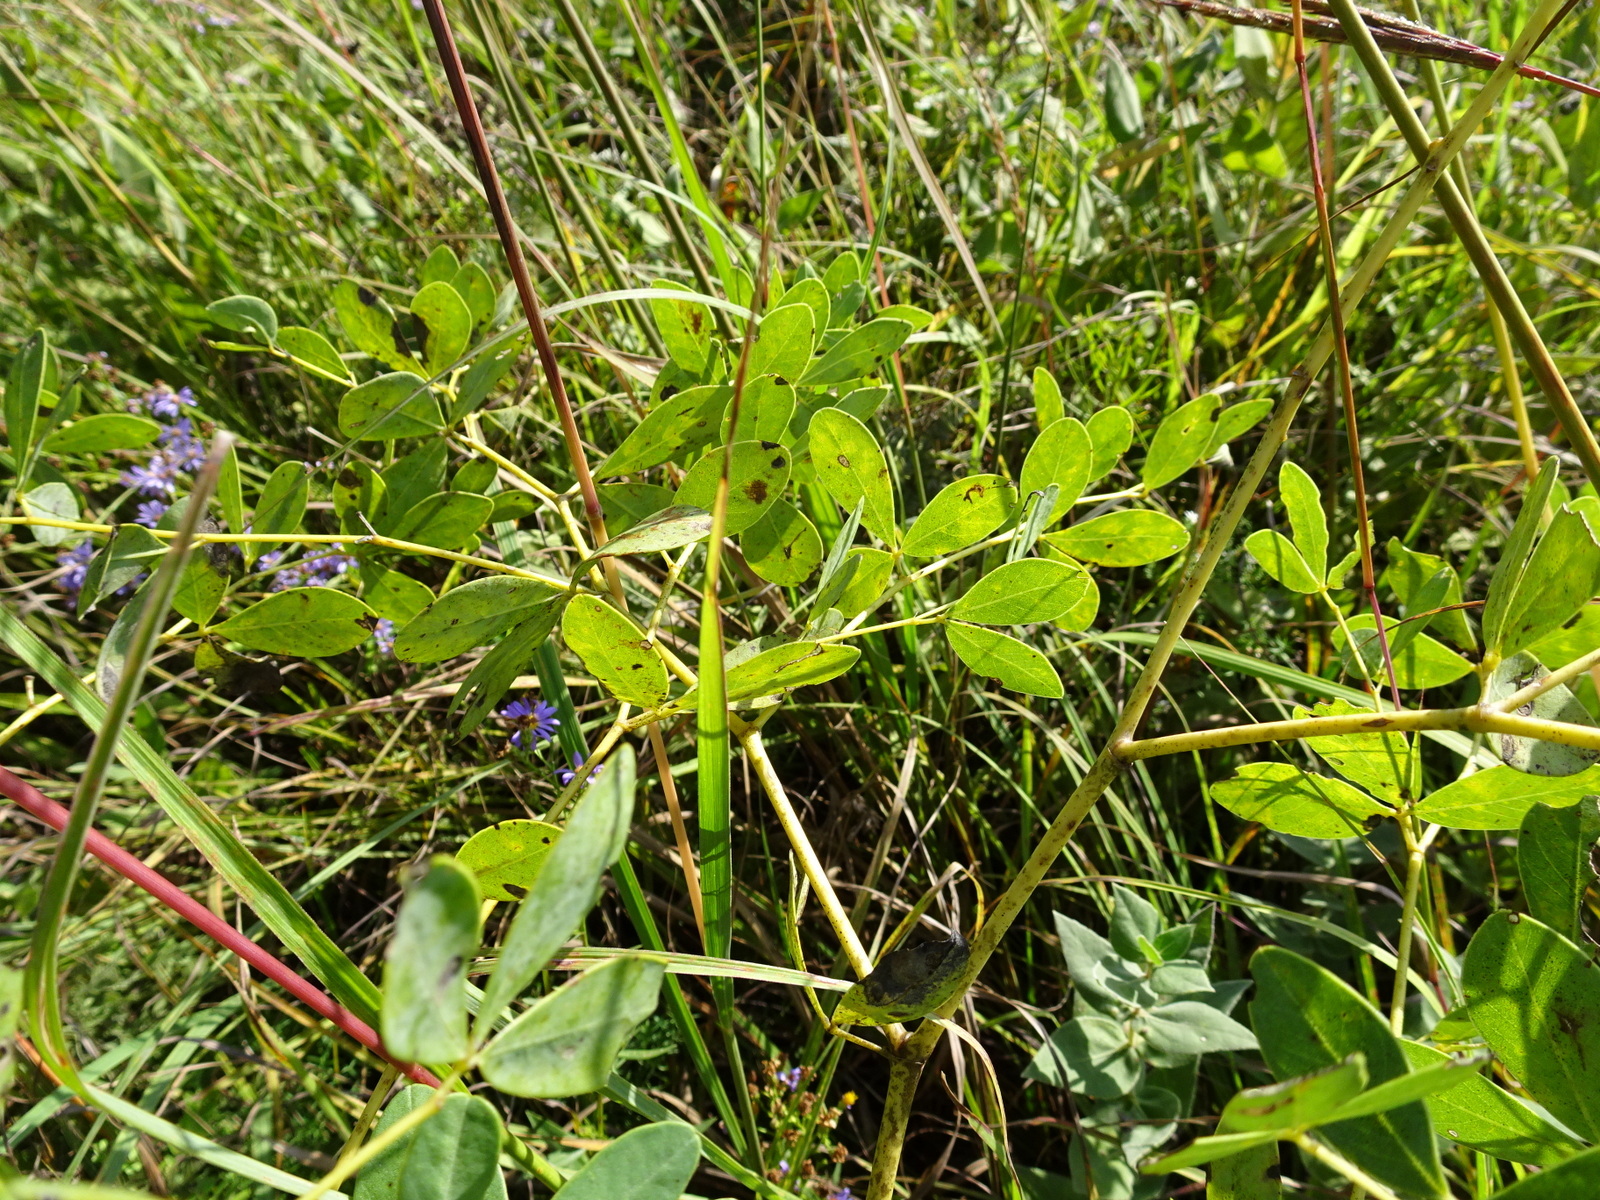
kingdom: Plantae
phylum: Tracheophyta
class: Magnoliopsida
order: Fabales
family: Fabaceae
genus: Baptisia
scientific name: Baptisia alba
